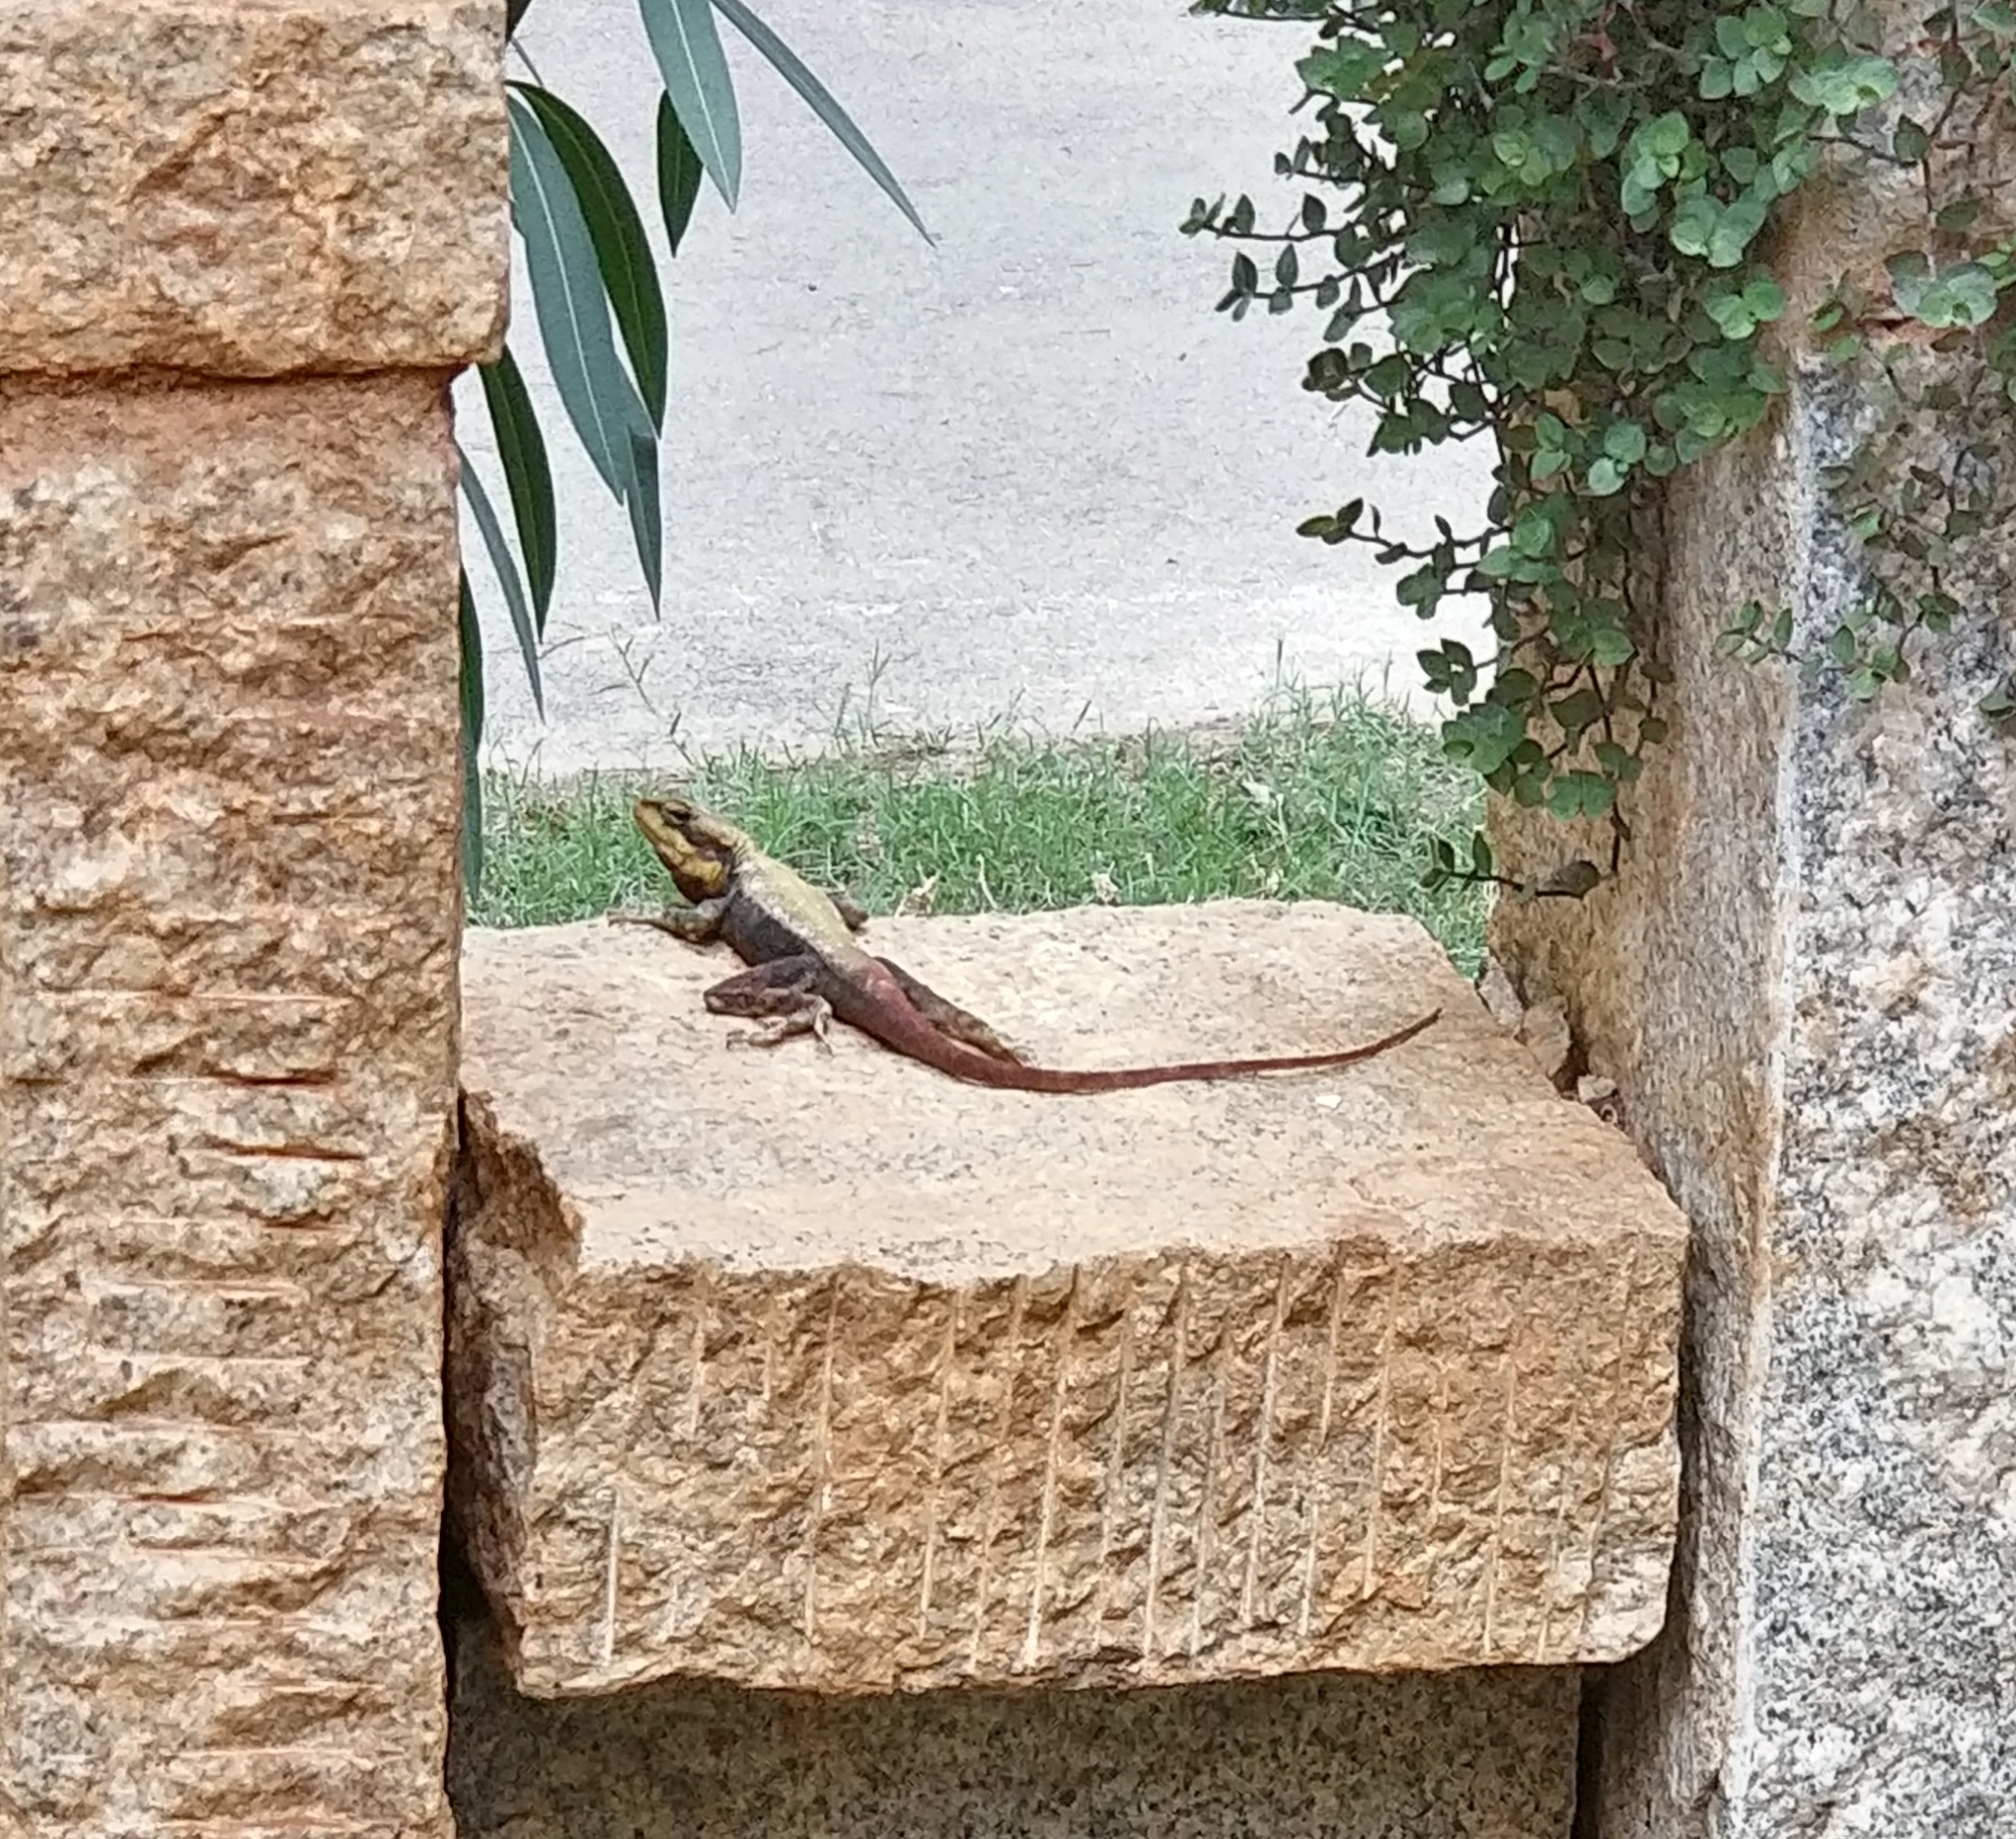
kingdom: Animalia
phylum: Chordata
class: Squamata
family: Agamidae
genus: Psammophilus
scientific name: Psammophilus dorsalis
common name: South indian rock agama
